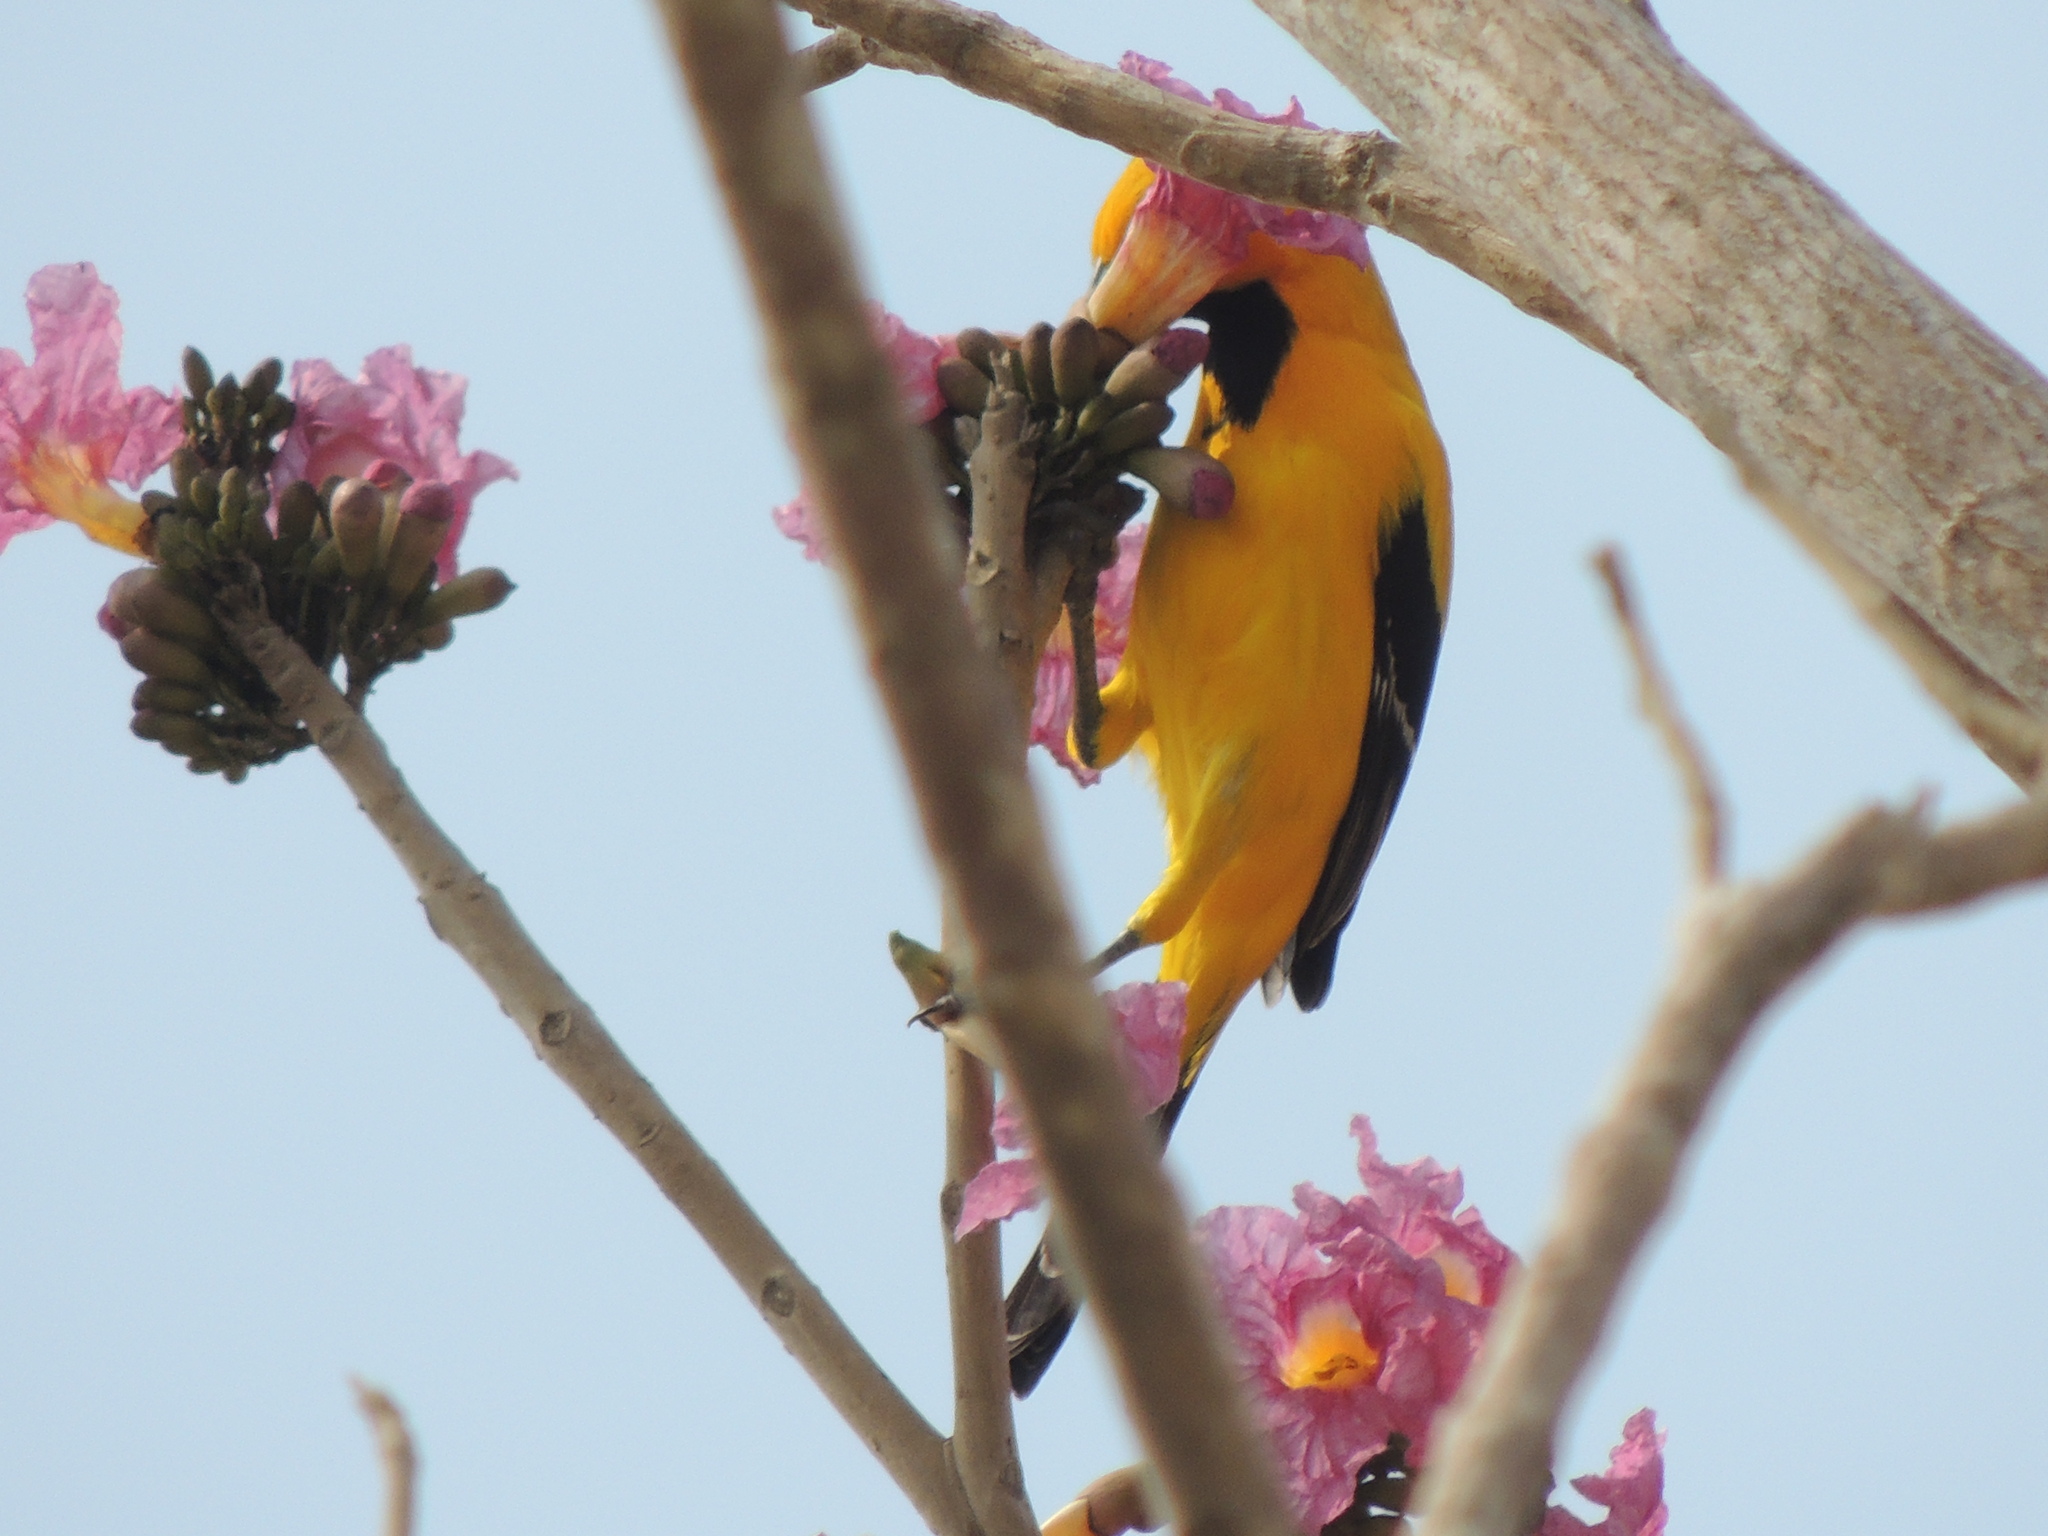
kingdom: Animalia
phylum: Chordata
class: Aves
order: Passeriformes
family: Icteridae
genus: Icterus
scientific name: Icterus nigrogularis
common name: Yellow oriole
